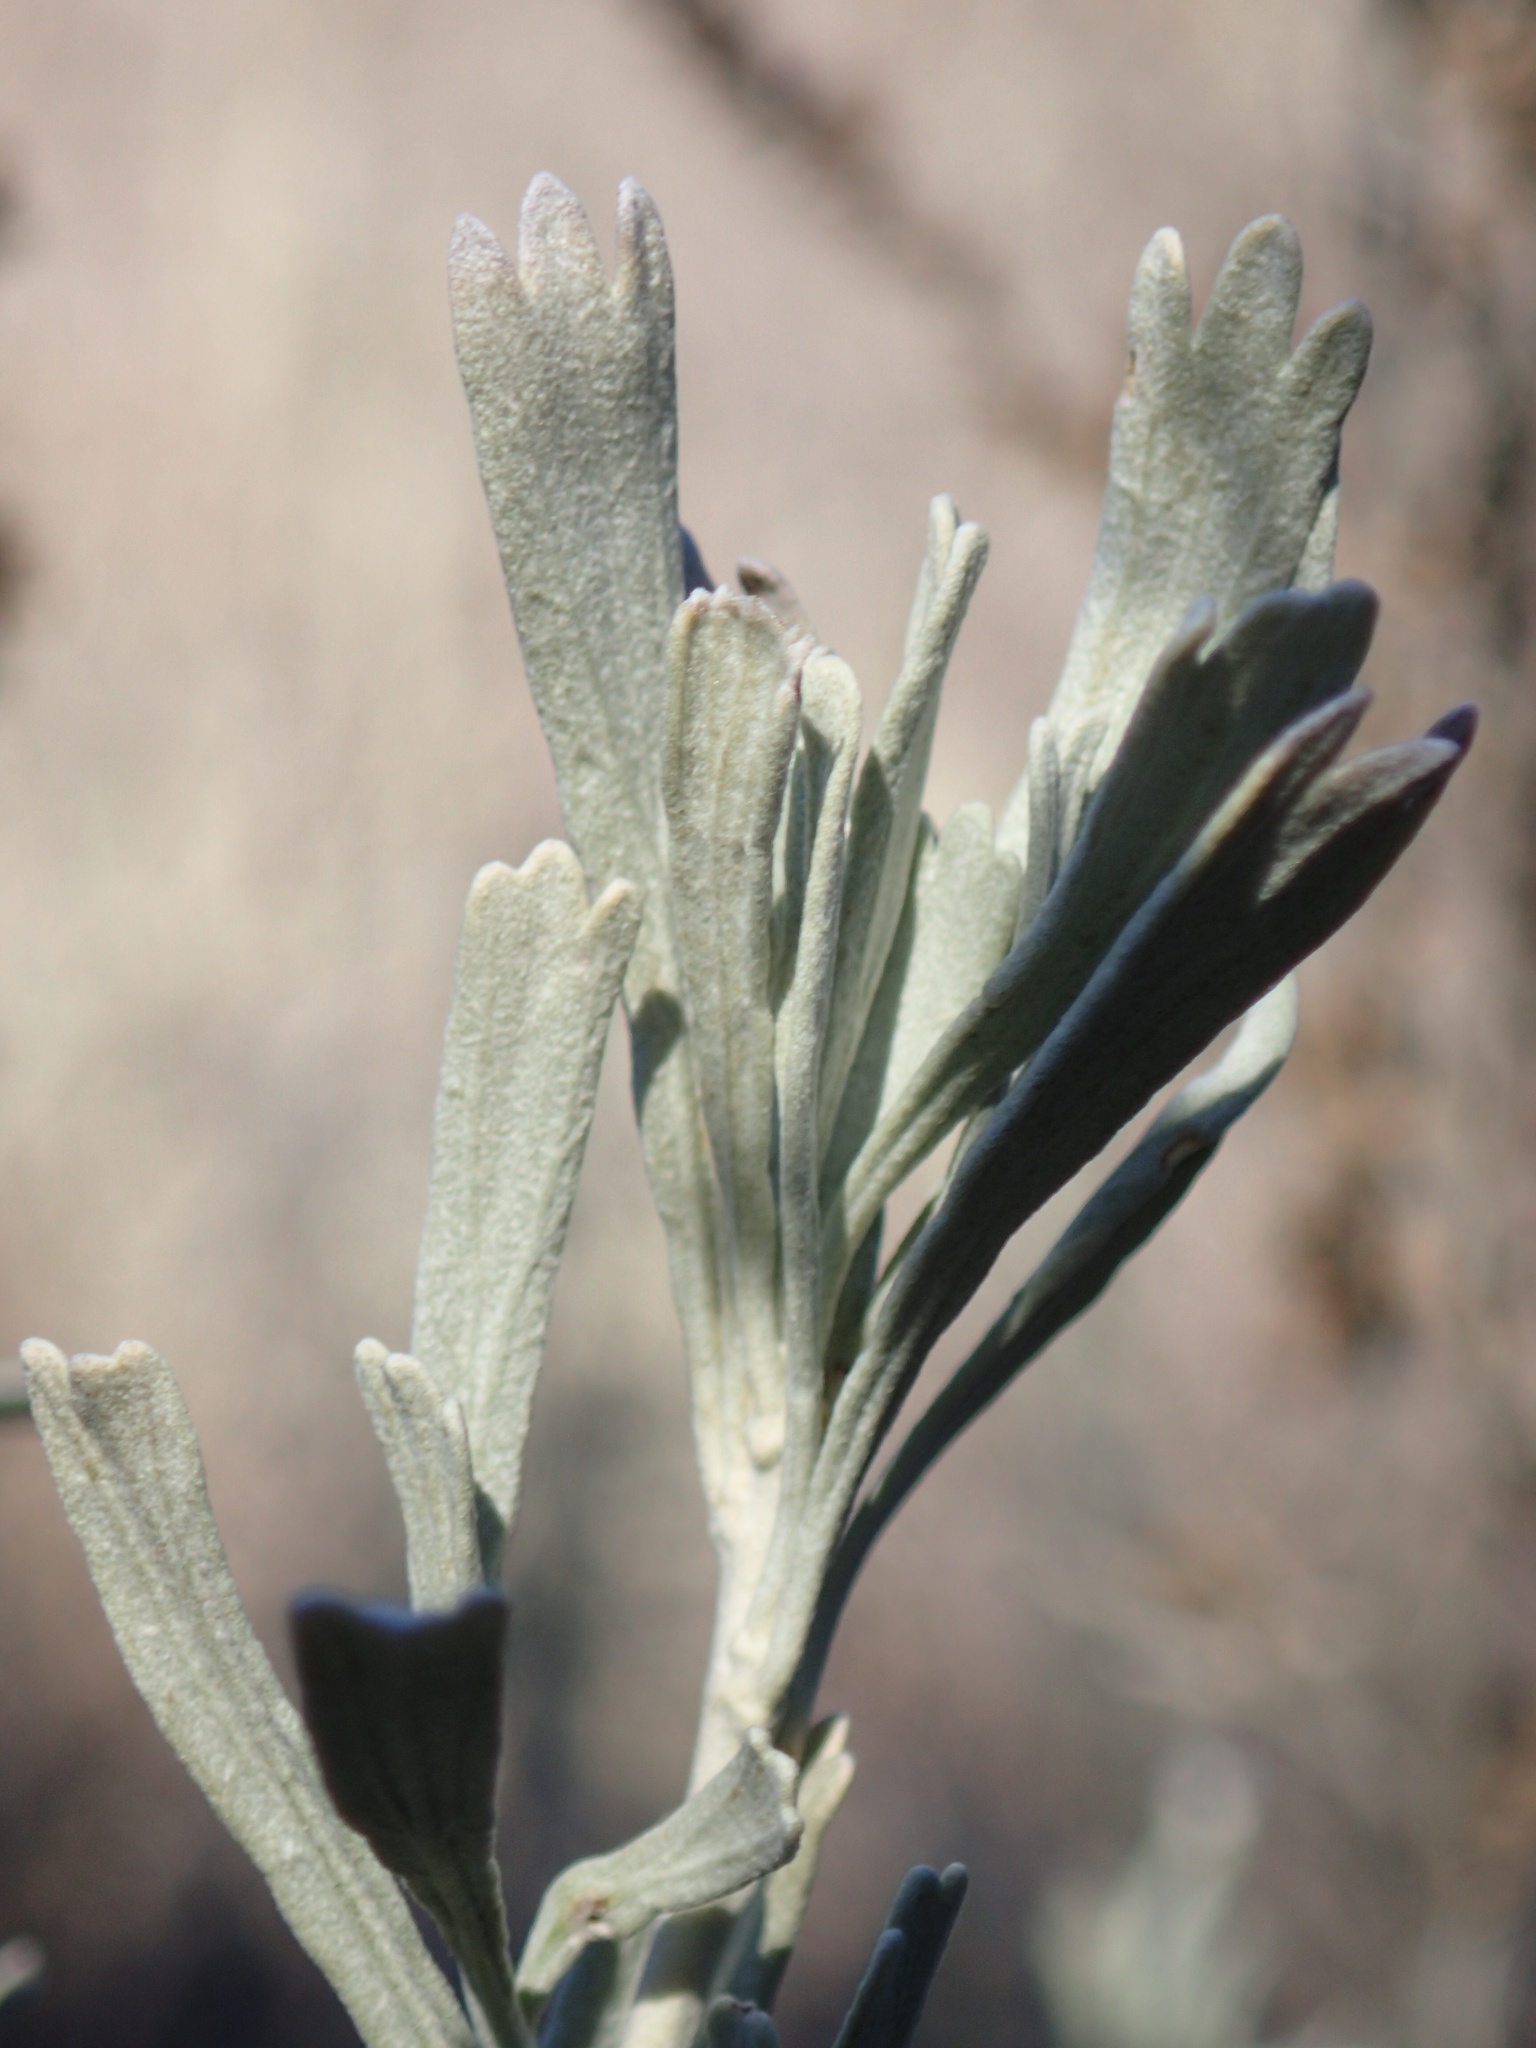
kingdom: Plantae
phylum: Tracheophyta
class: Magnoliopsida
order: Asterales
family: Asteraceae
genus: Artemisia
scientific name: Artemisia tridentata
